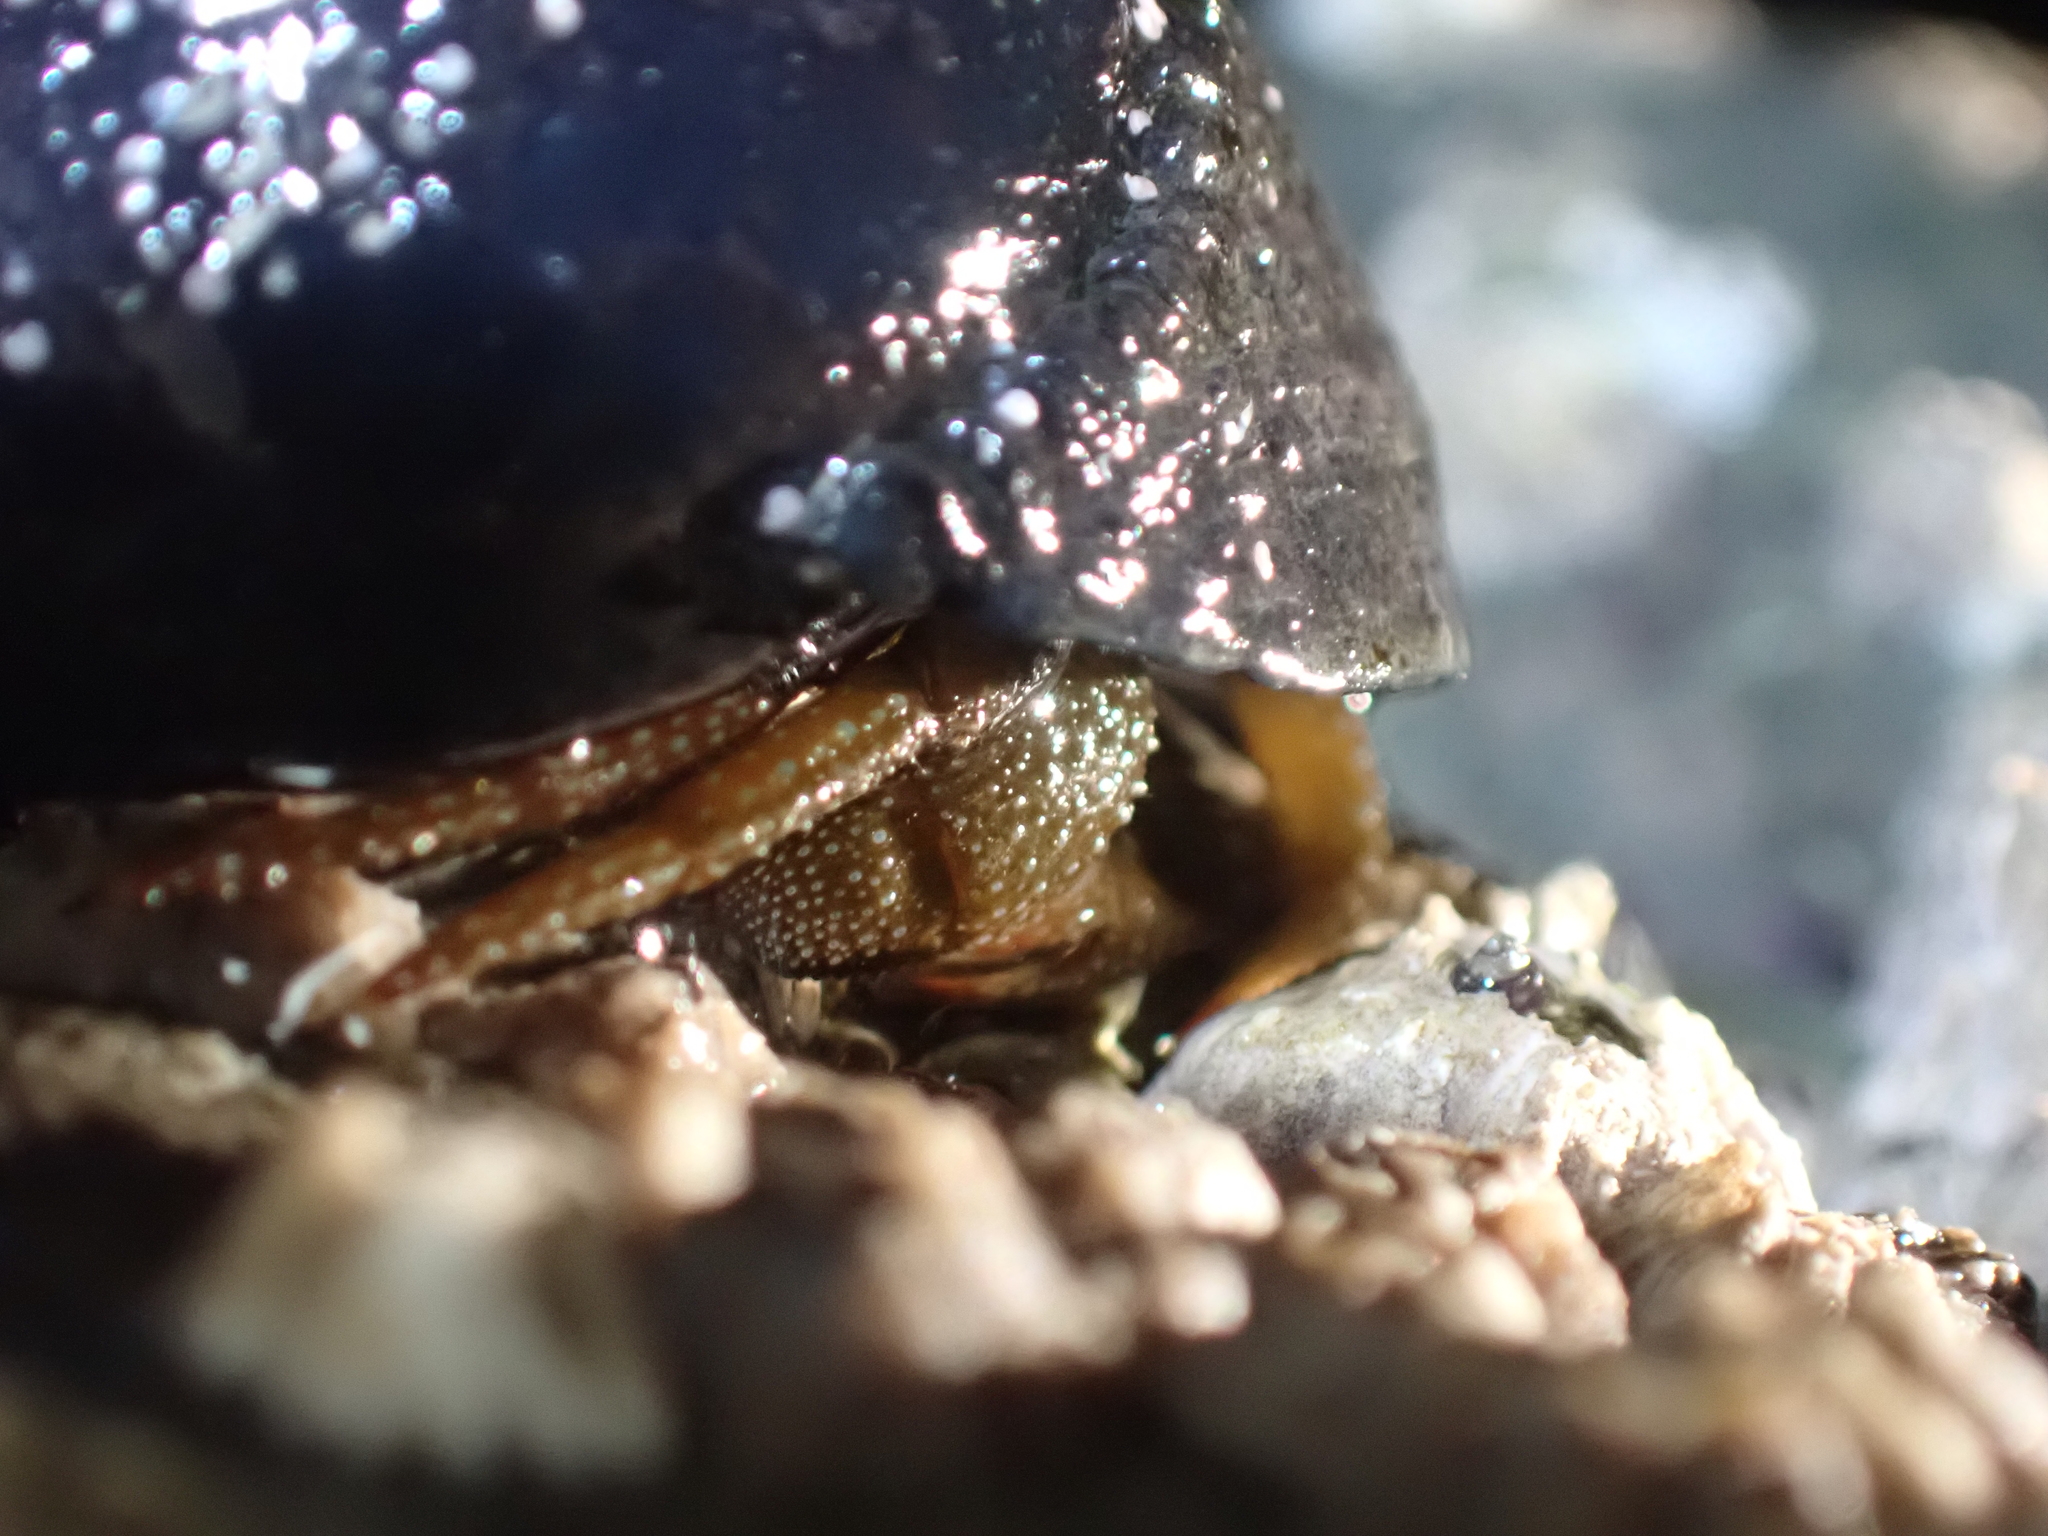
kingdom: Animalia
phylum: Arthropoda
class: Malacostraca
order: Decapoda
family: Paguridae
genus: Pagurus
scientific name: Pagurus granosimanus
